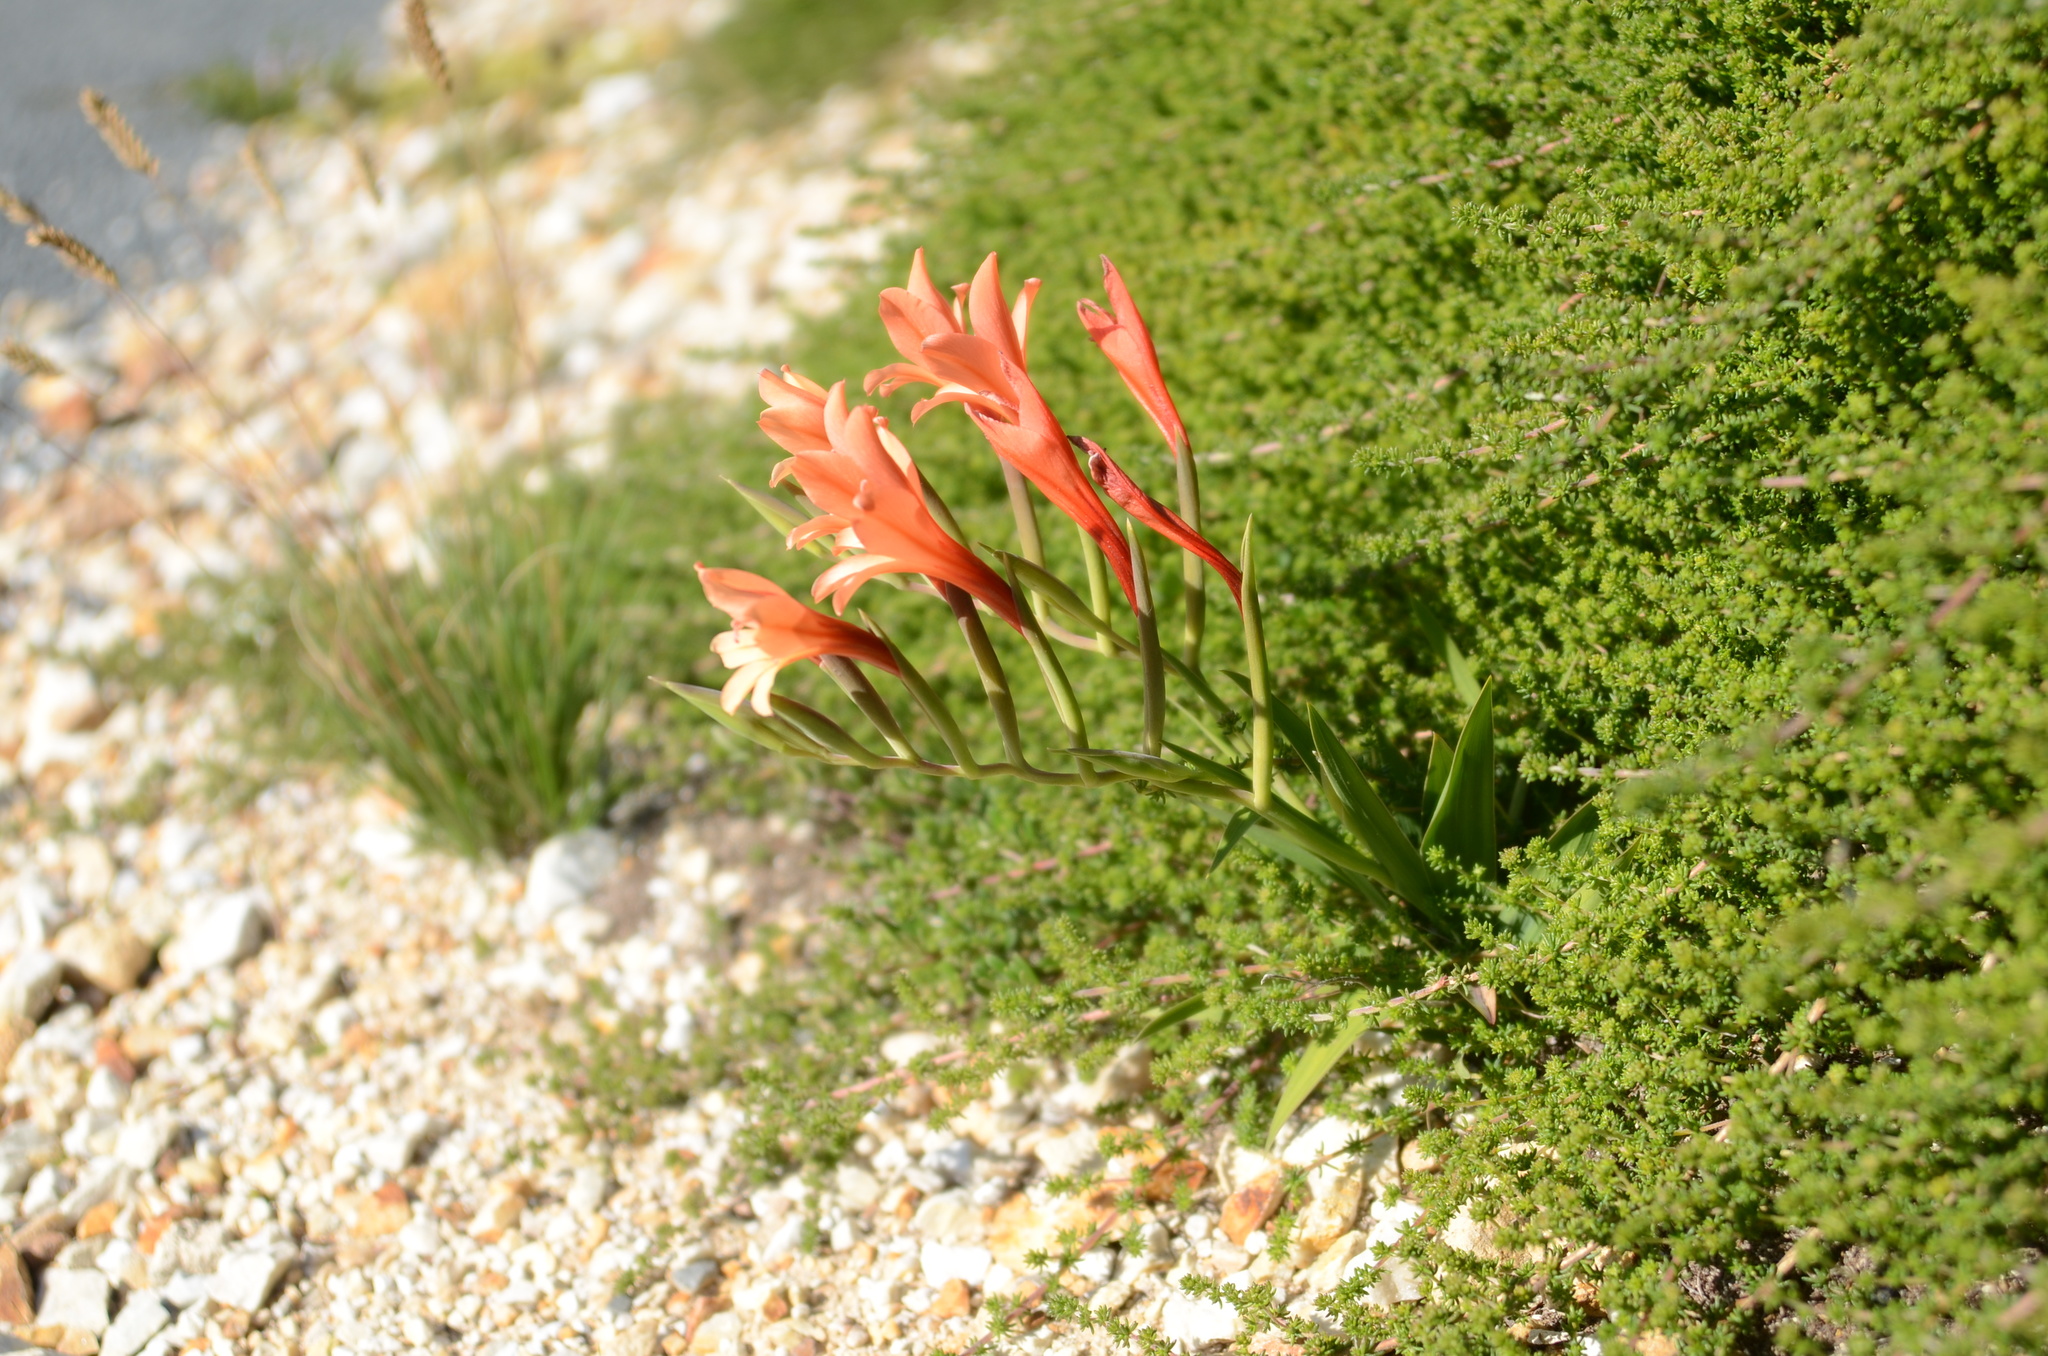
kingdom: Plantae
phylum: Tracheophyta
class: Liliopsida
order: Asparagales
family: Iridaceae
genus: Gladiolus
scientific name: Gladiolus miniatus
